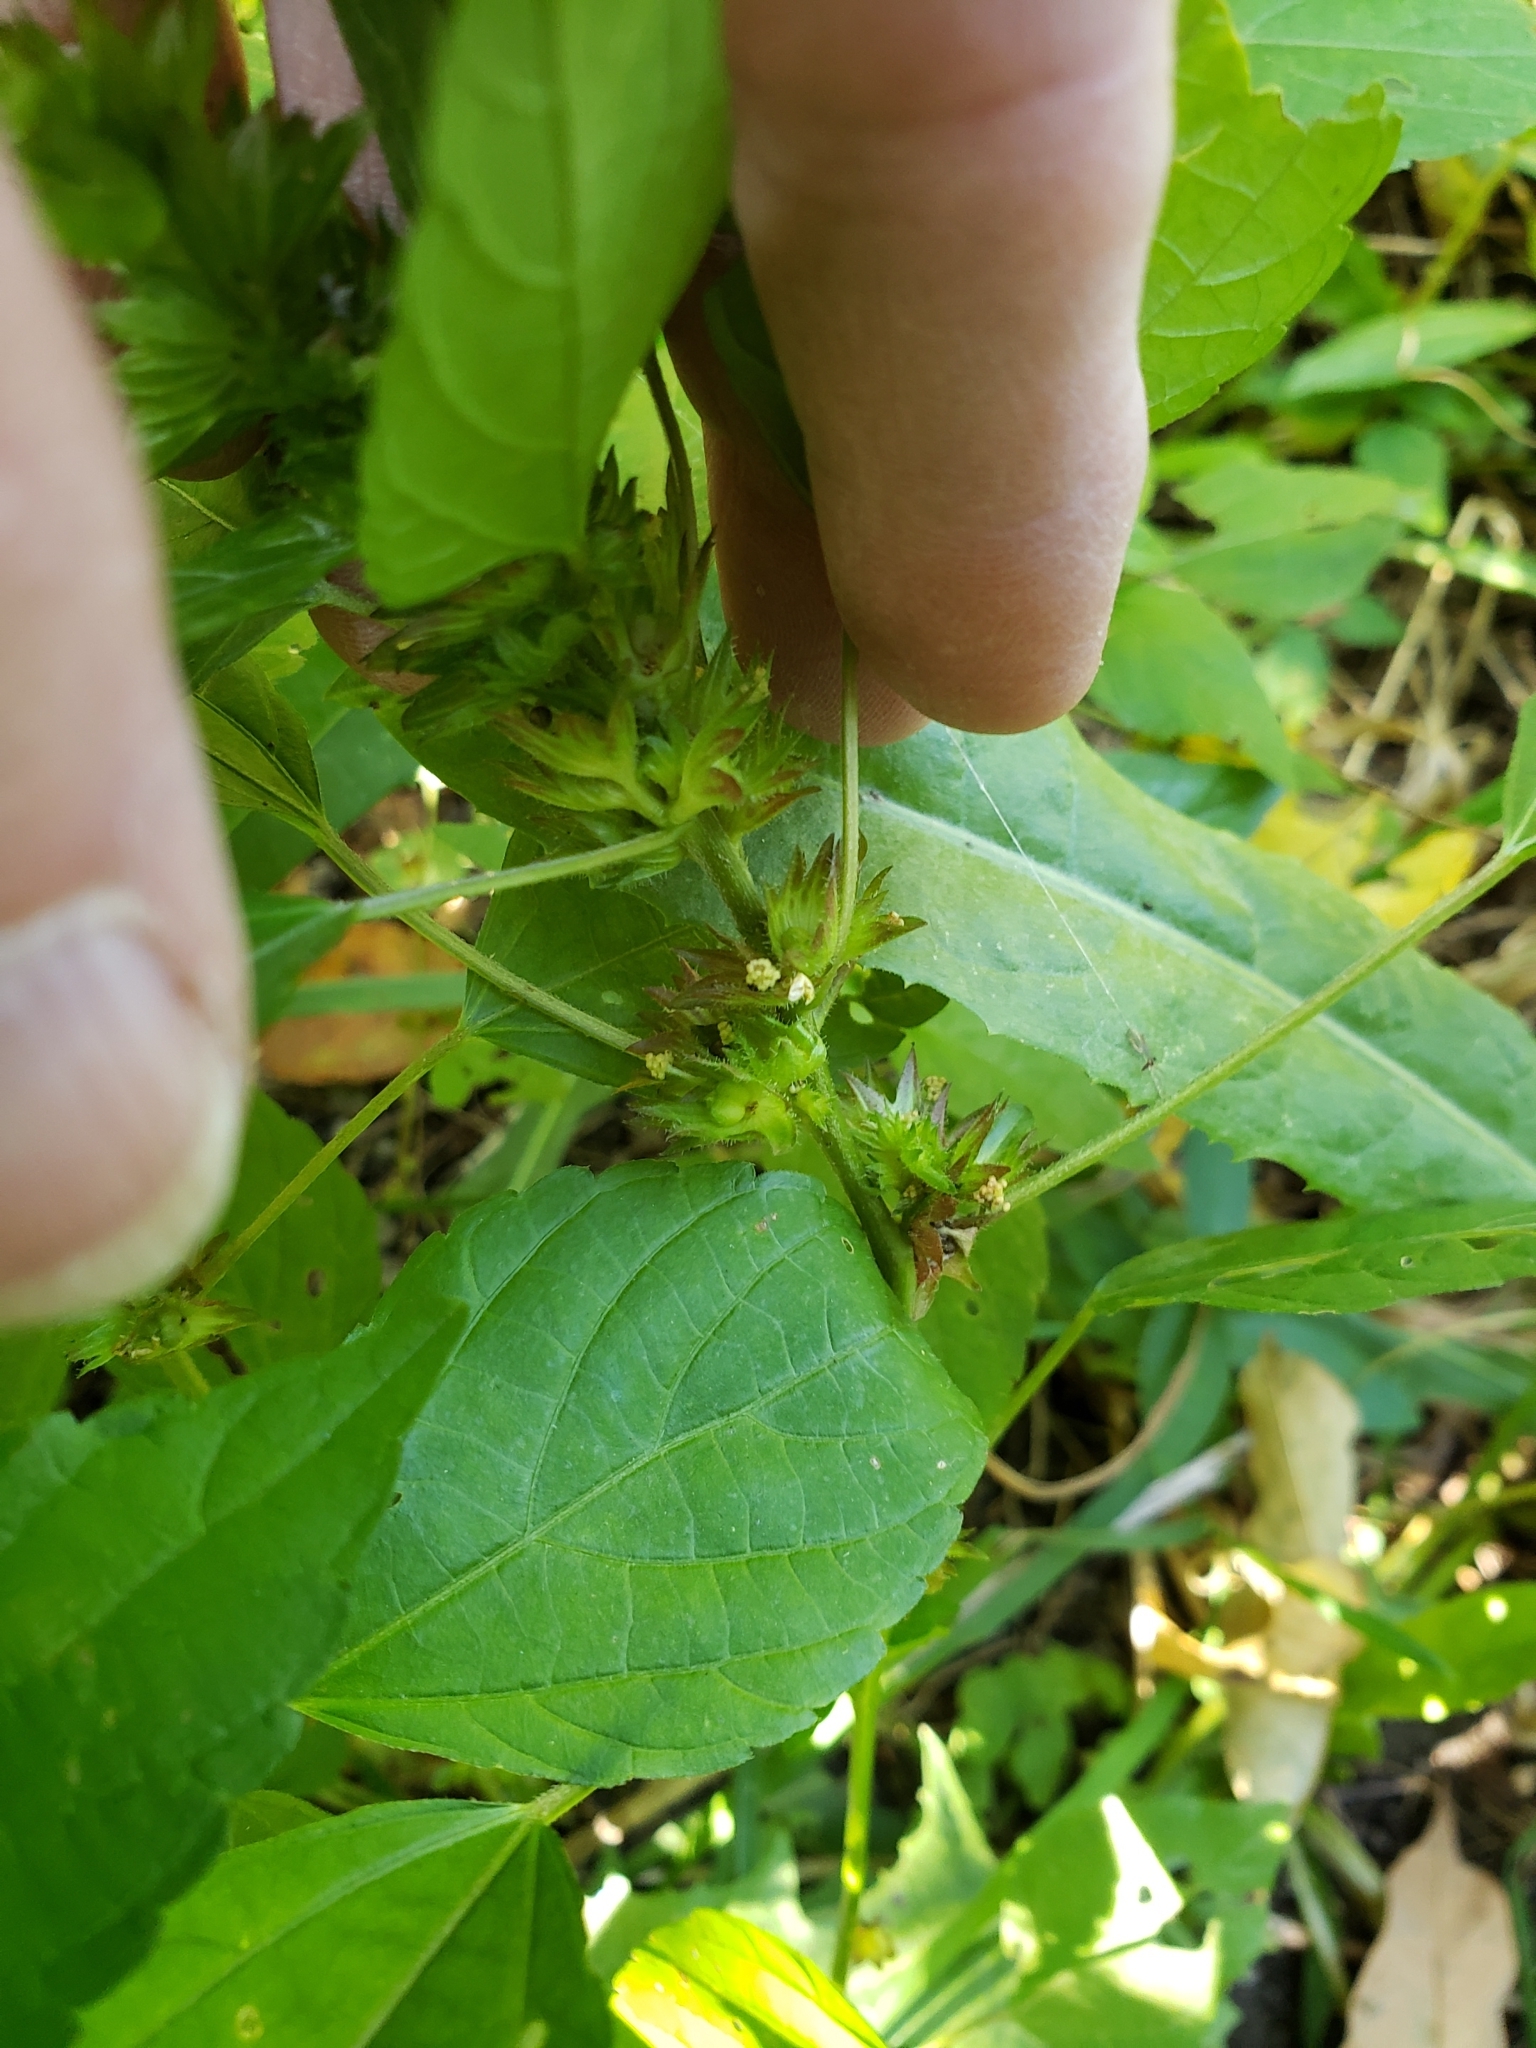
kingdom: Plantae
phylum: Tracheophyta
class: Magnoliopsida
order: Malpighiales
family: Euphorbiaceae
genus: Acalypha
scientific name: Acalypha rhomboidea
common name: Rhombic copperleaf
